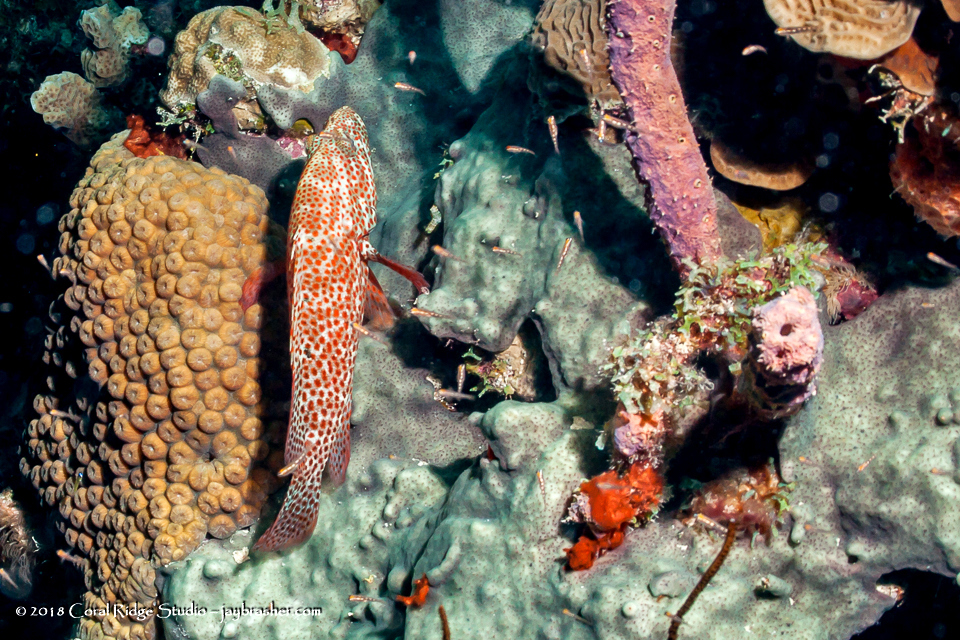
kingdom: Animalia
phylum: Chordata
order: Perciformes
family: Serranidae
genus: Cephalopholis
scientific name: Cephalopholis cruentata
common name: Graysby
